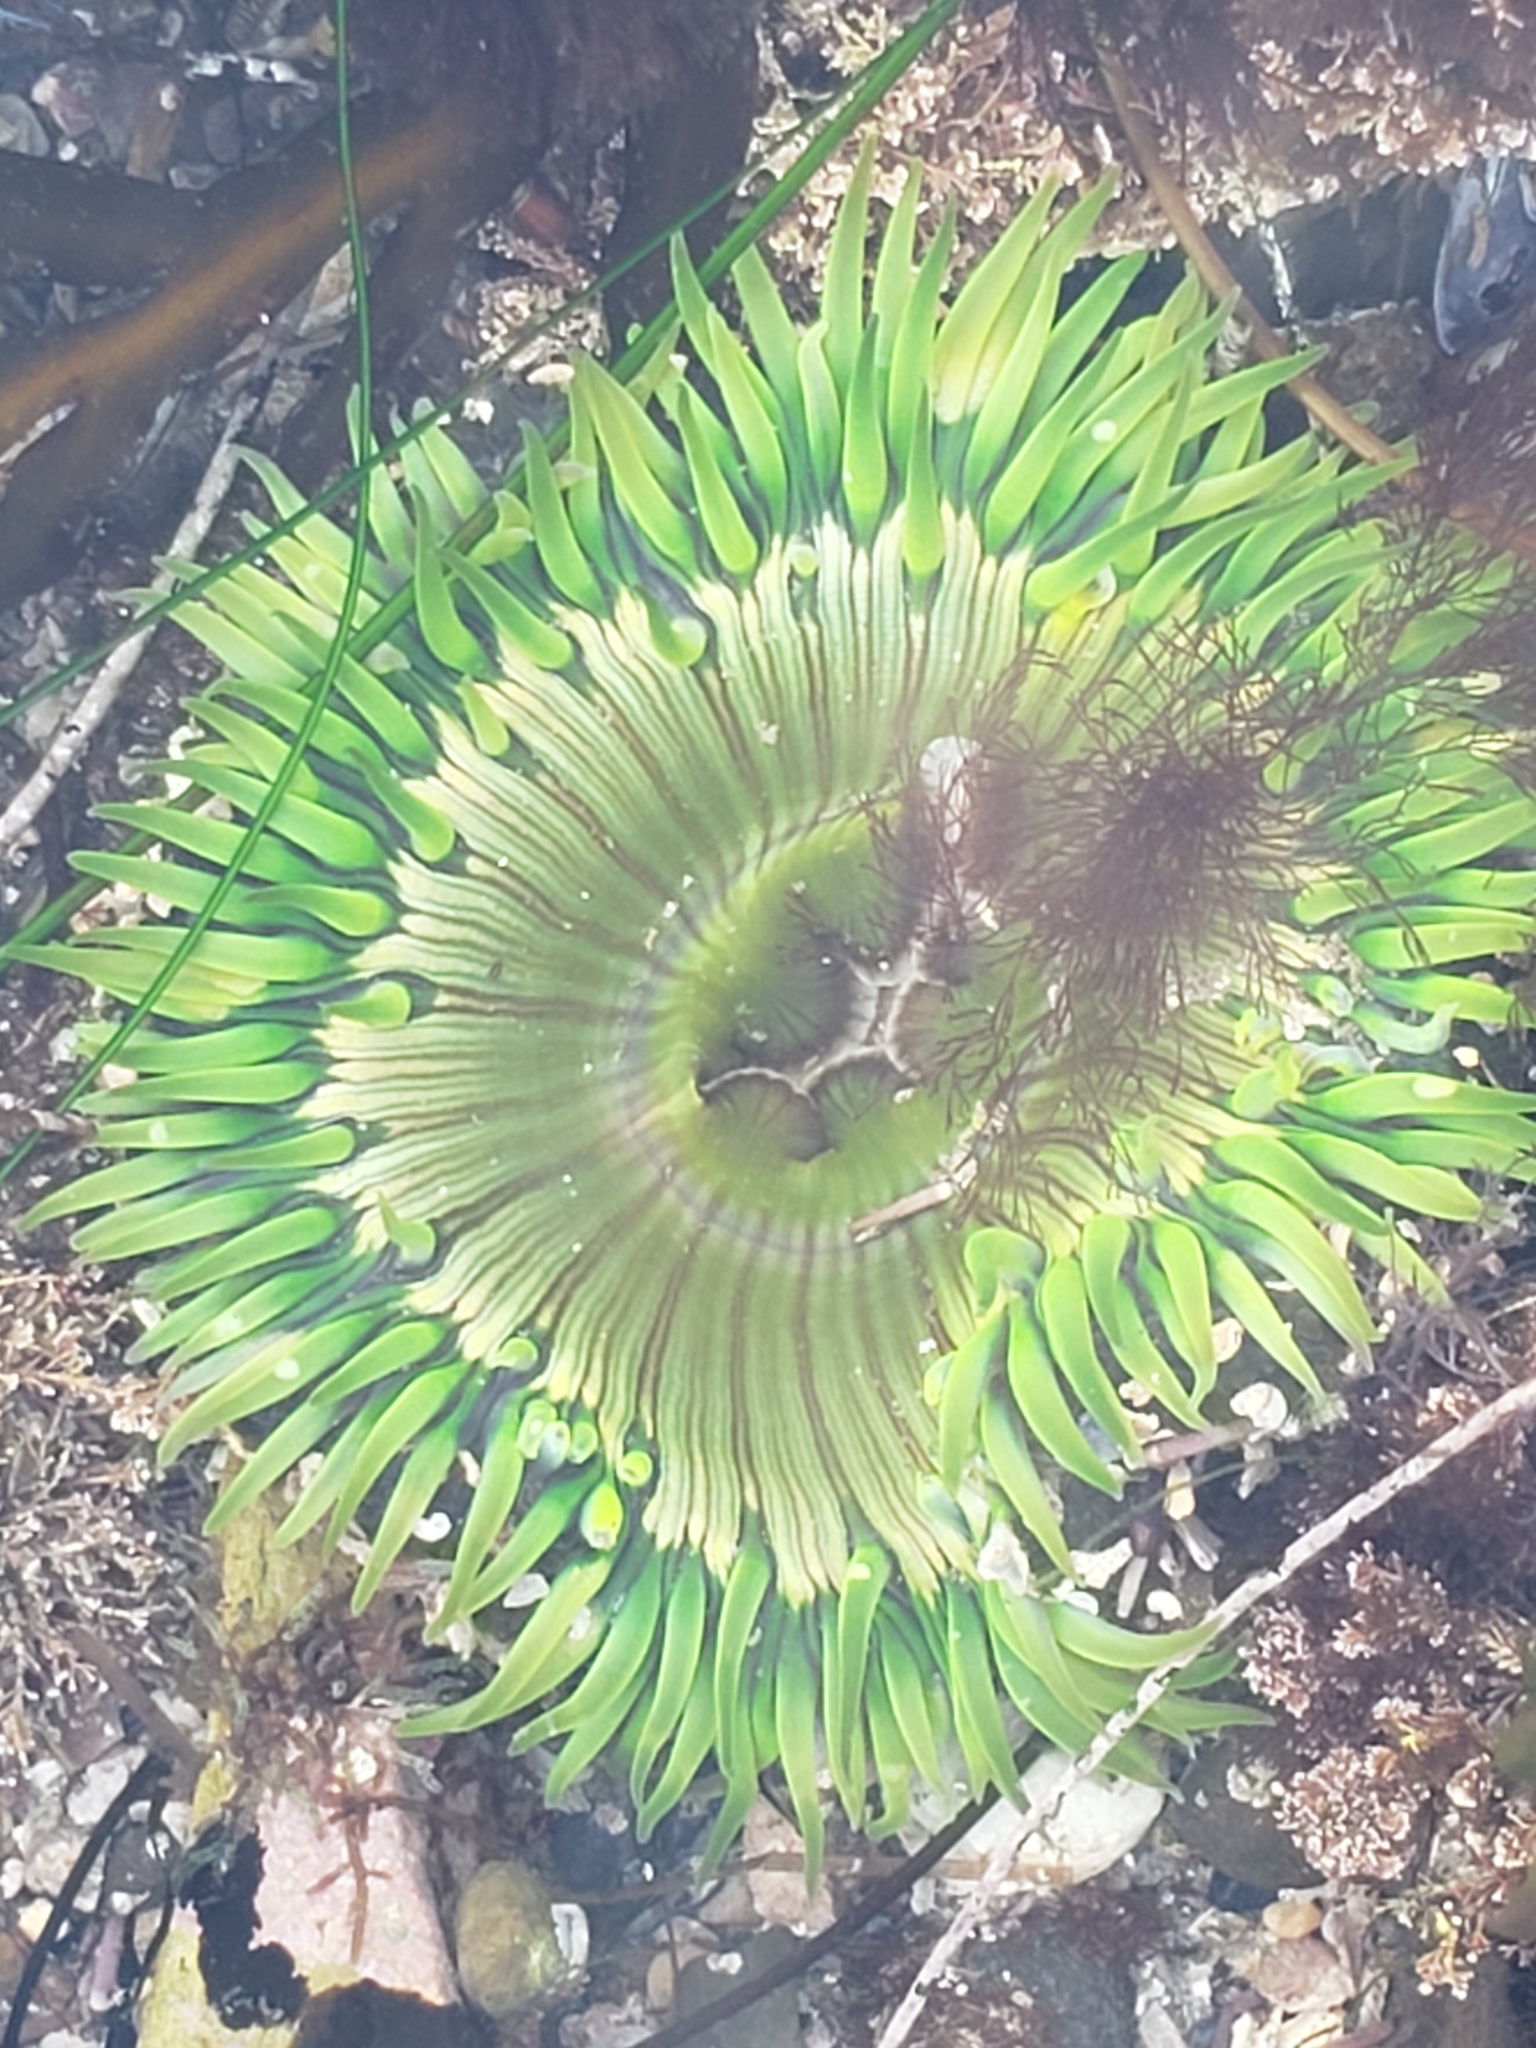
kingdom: Animalia
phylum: Cnidaria
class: Anthozoa
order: Actiniaria
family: Actiniidae
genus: Anthopleura
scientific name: Anthopleura sola
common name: Sun anemone
